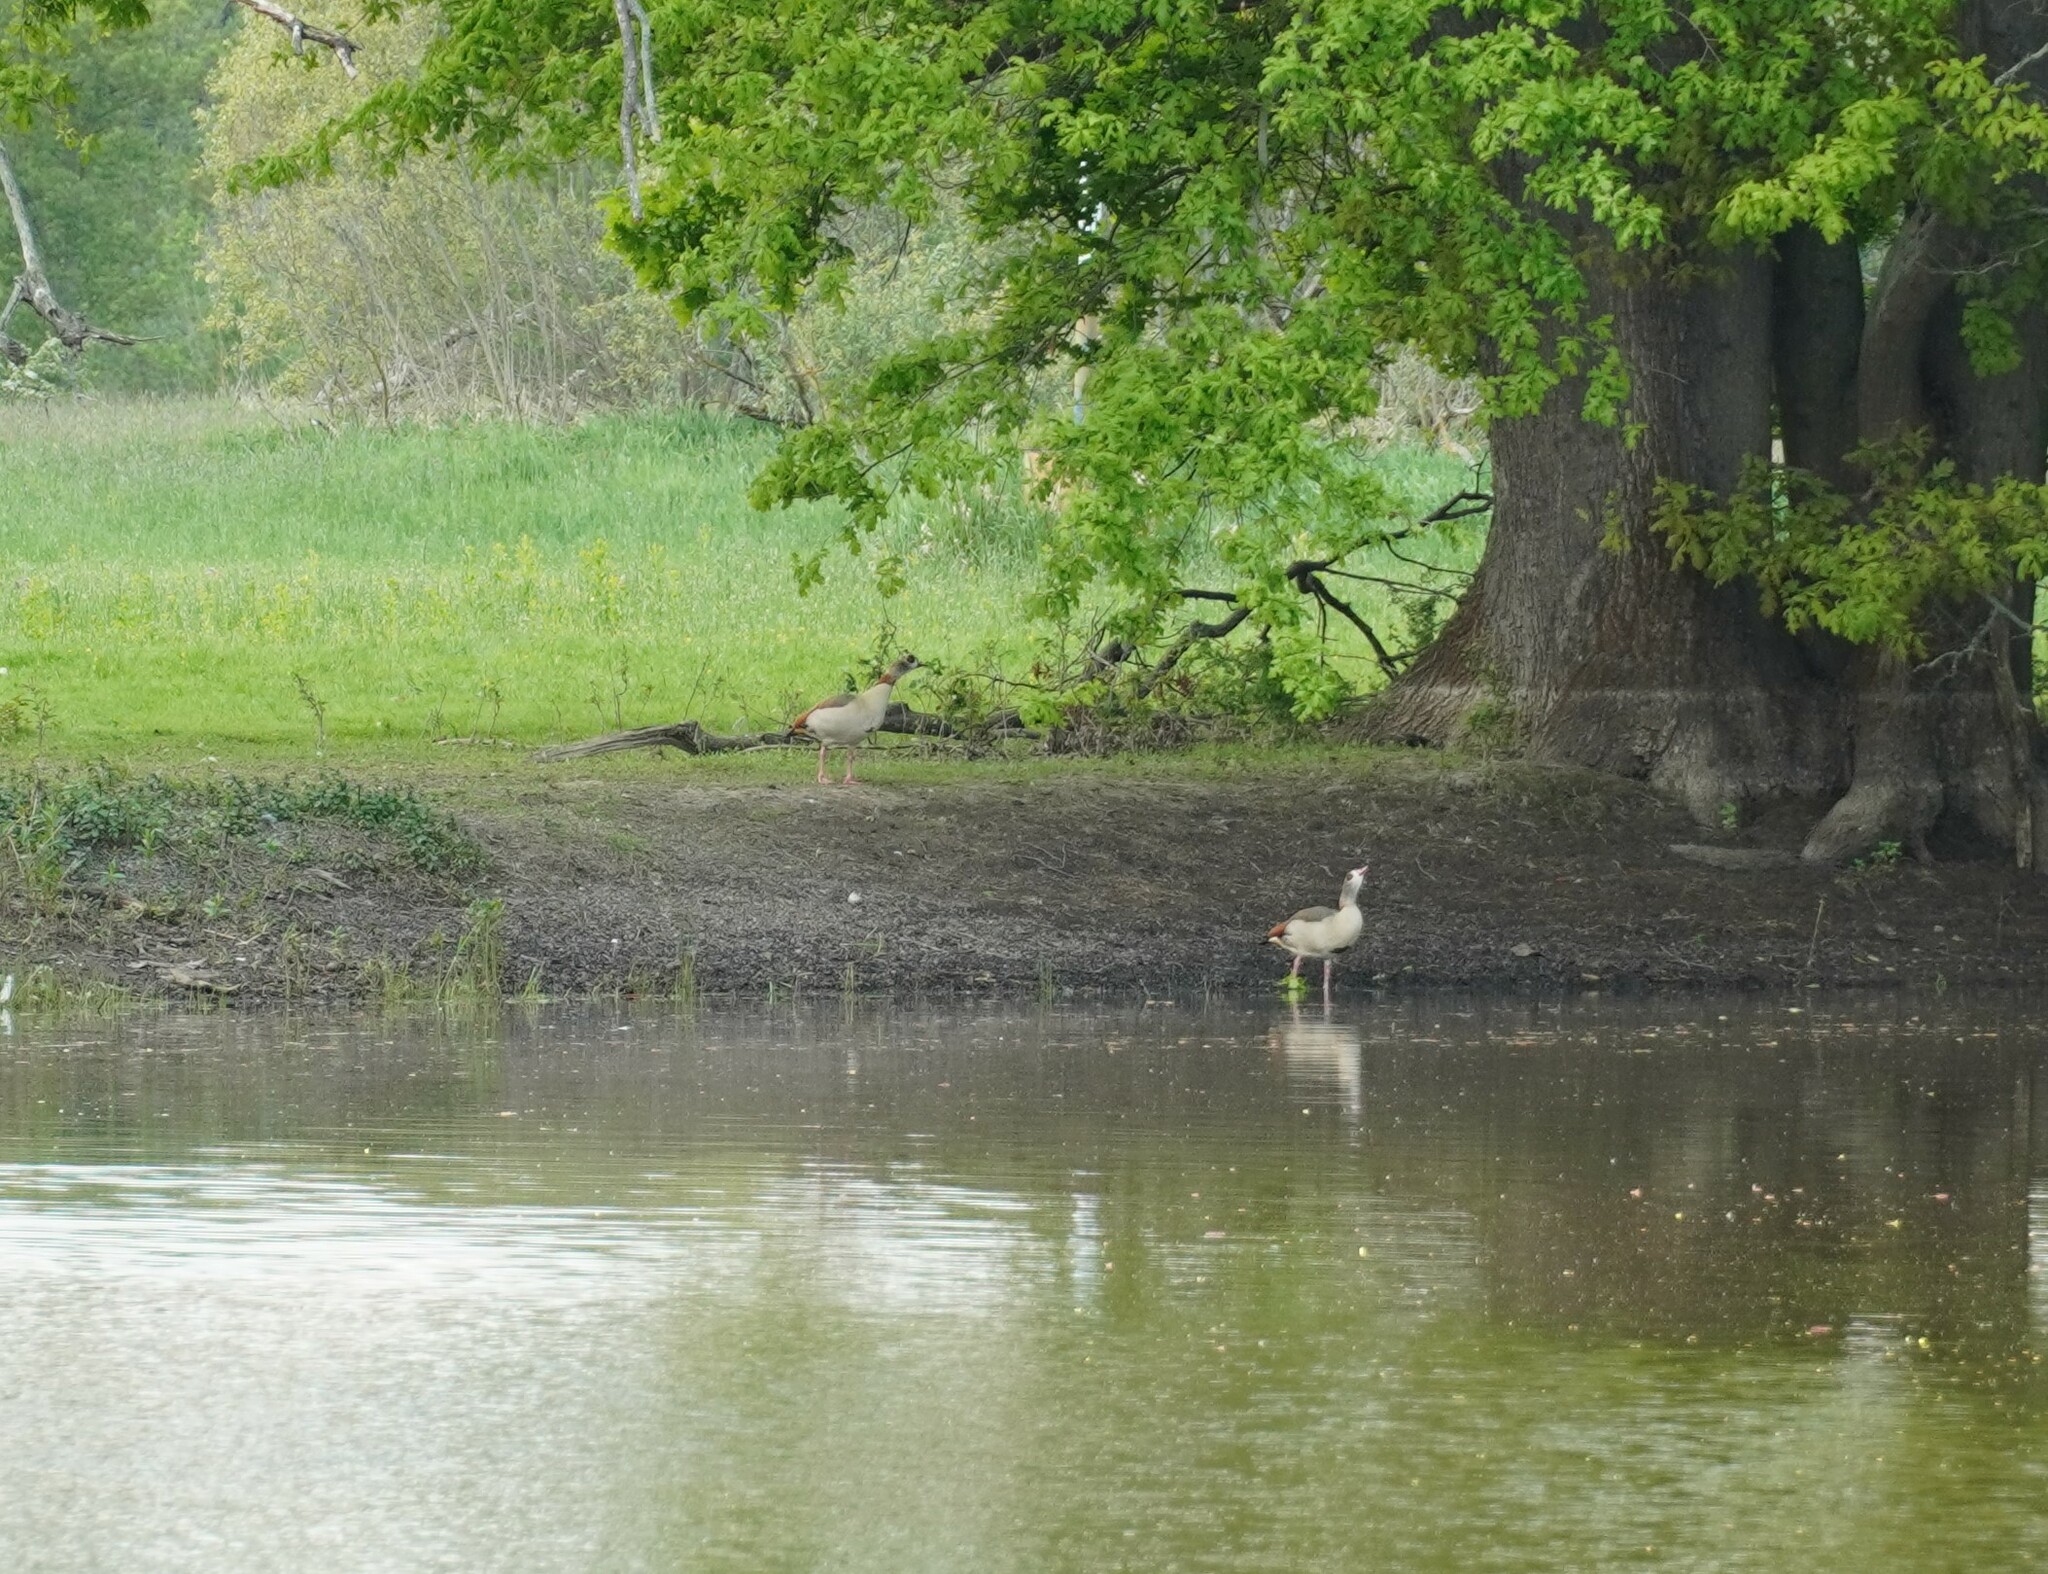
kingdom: Animalia
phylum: Chordata
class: Aves
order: Anseriformes
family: Anatidae
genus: Alopochen
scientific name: Alopochen aegyptiaca
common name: Egyptian goose
